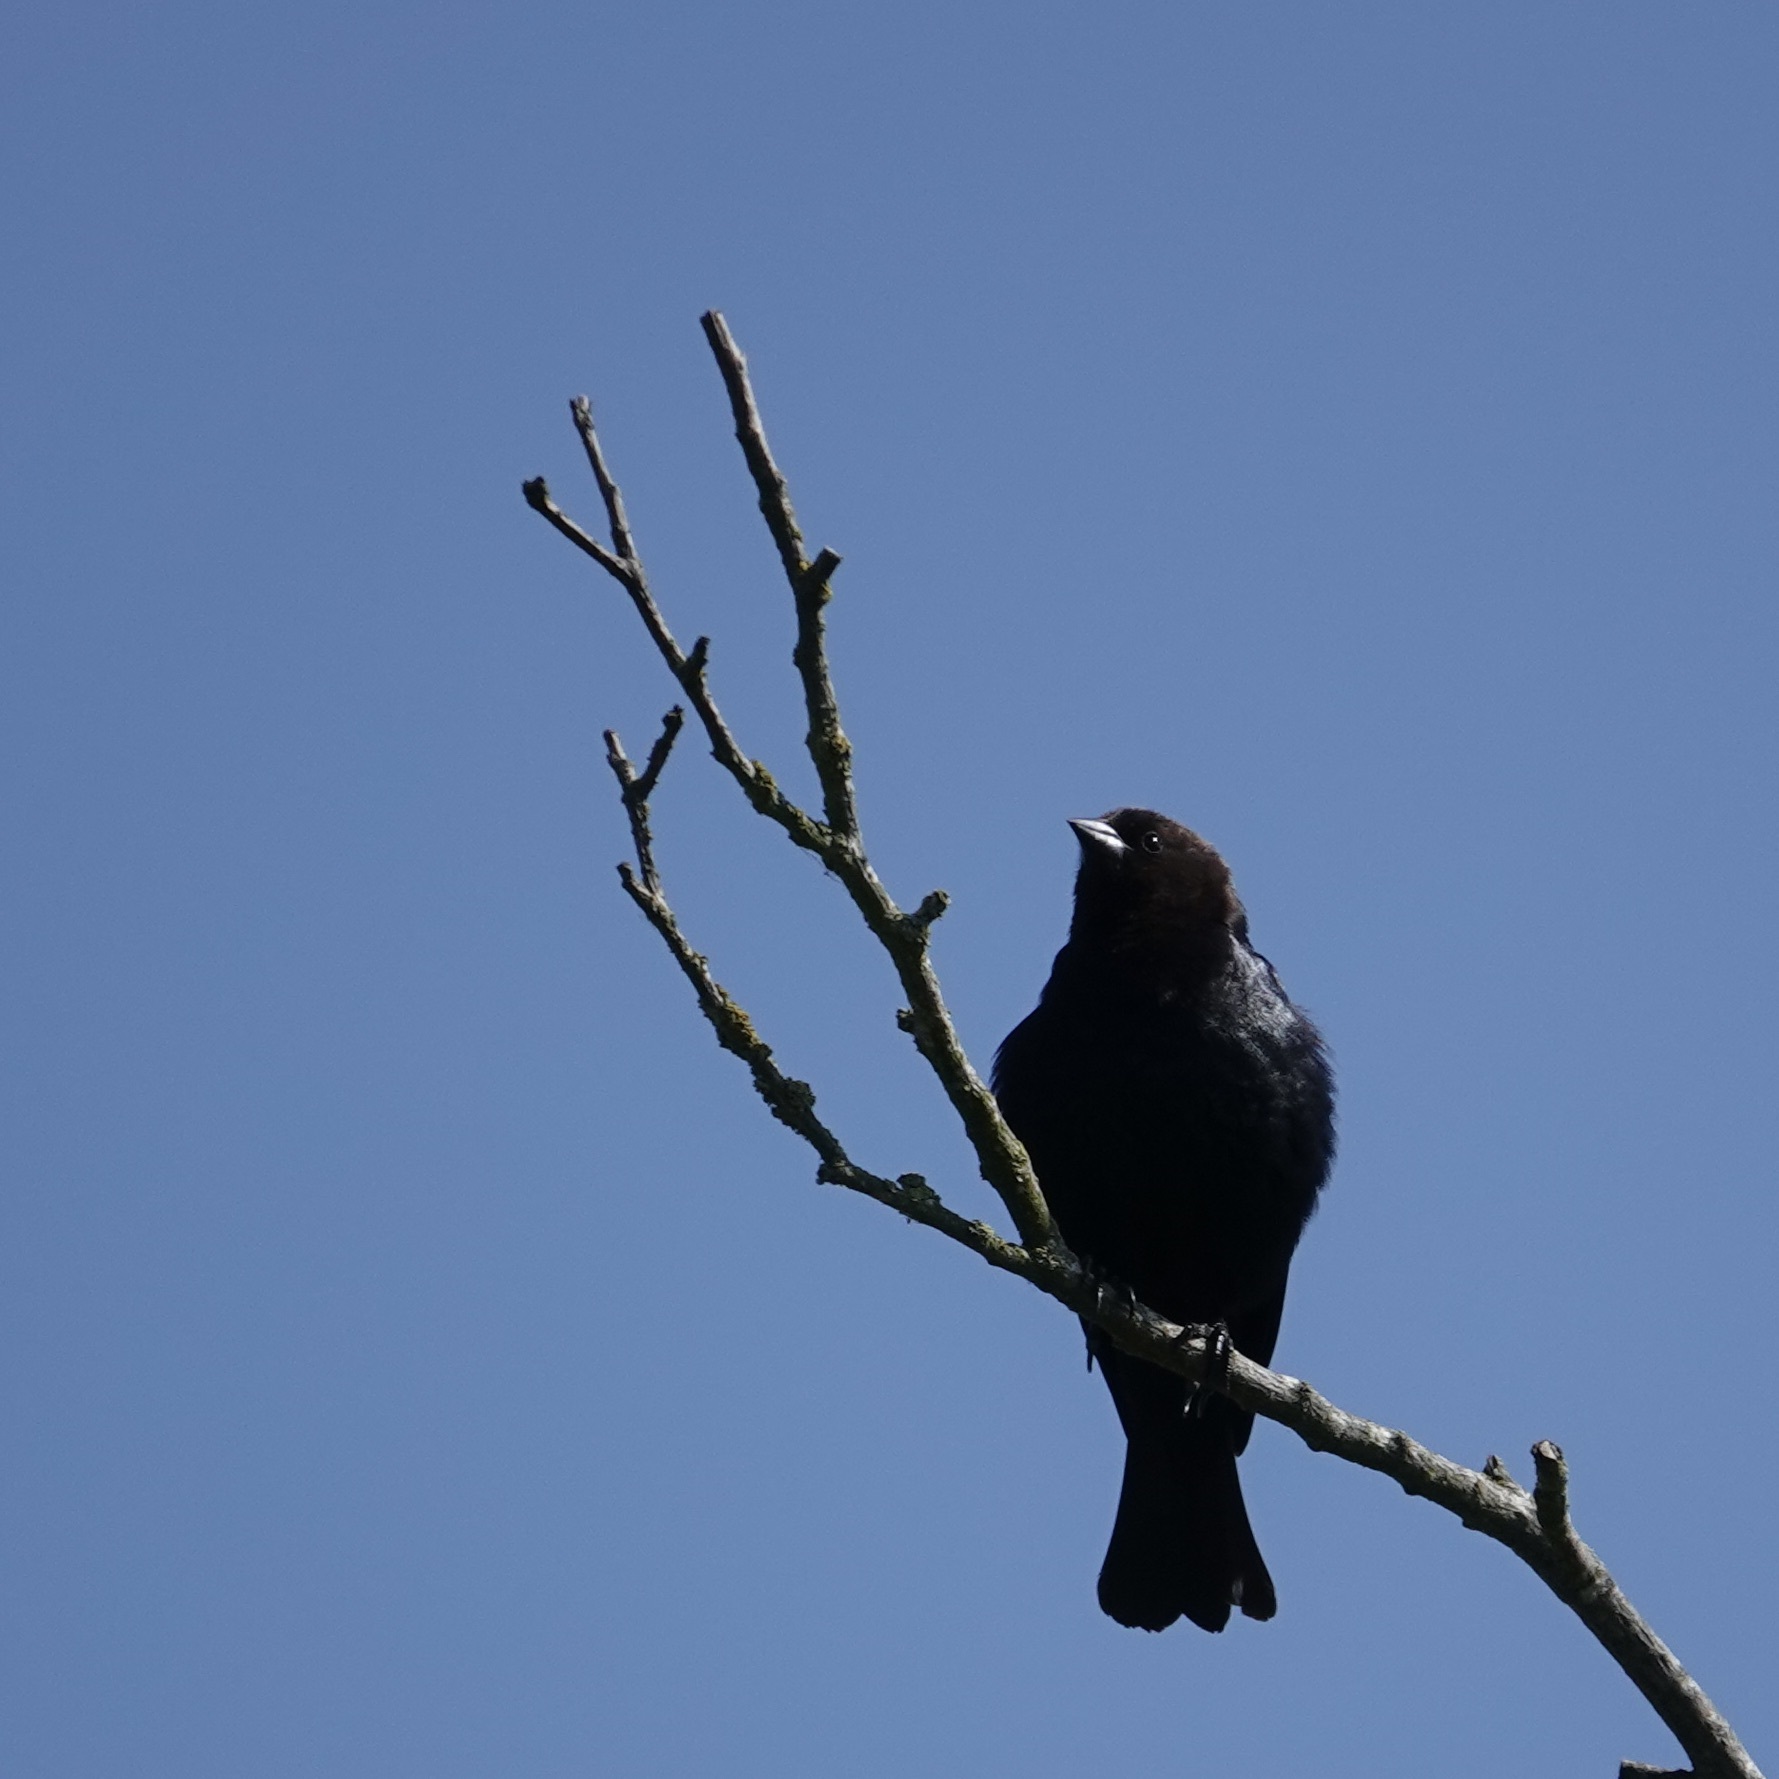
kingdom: Animalia
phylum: Chordata
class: Aves
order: Passeriformes
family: Icteridae
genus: Molothrus
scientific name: Molothrus ater
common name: Brown-headed cowbird
